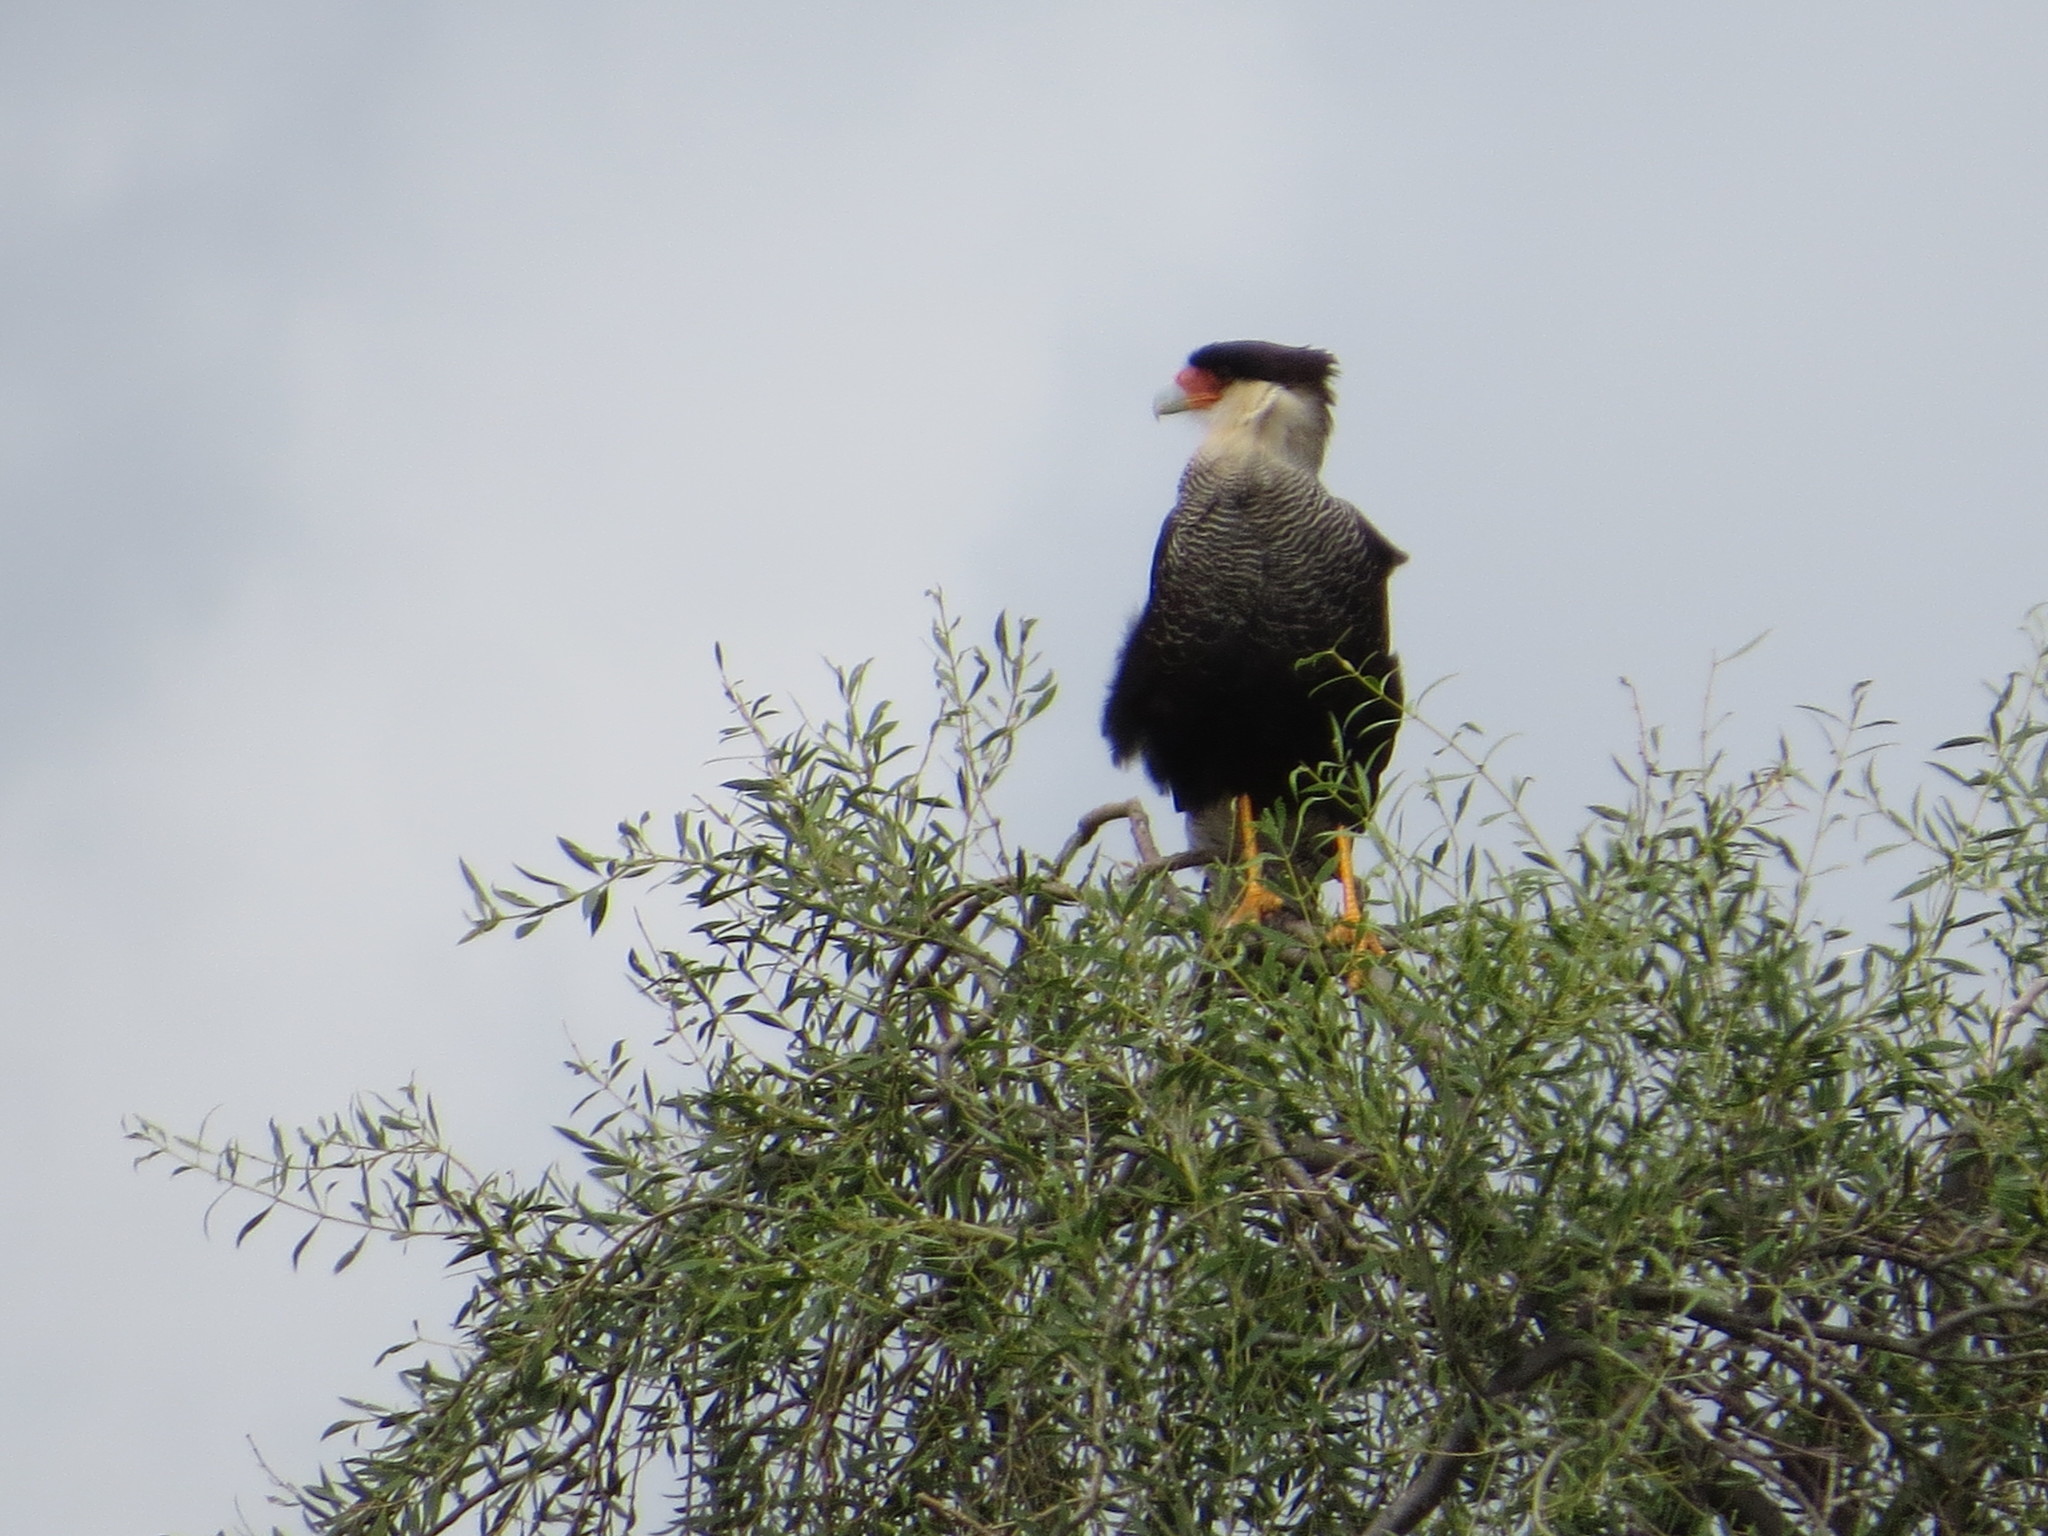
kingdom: Animalia
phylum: Chordata
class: Aves
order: Falconiformes
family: Falconidae
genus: Caracara
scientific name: Caracara plancus
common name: Southern caracara
